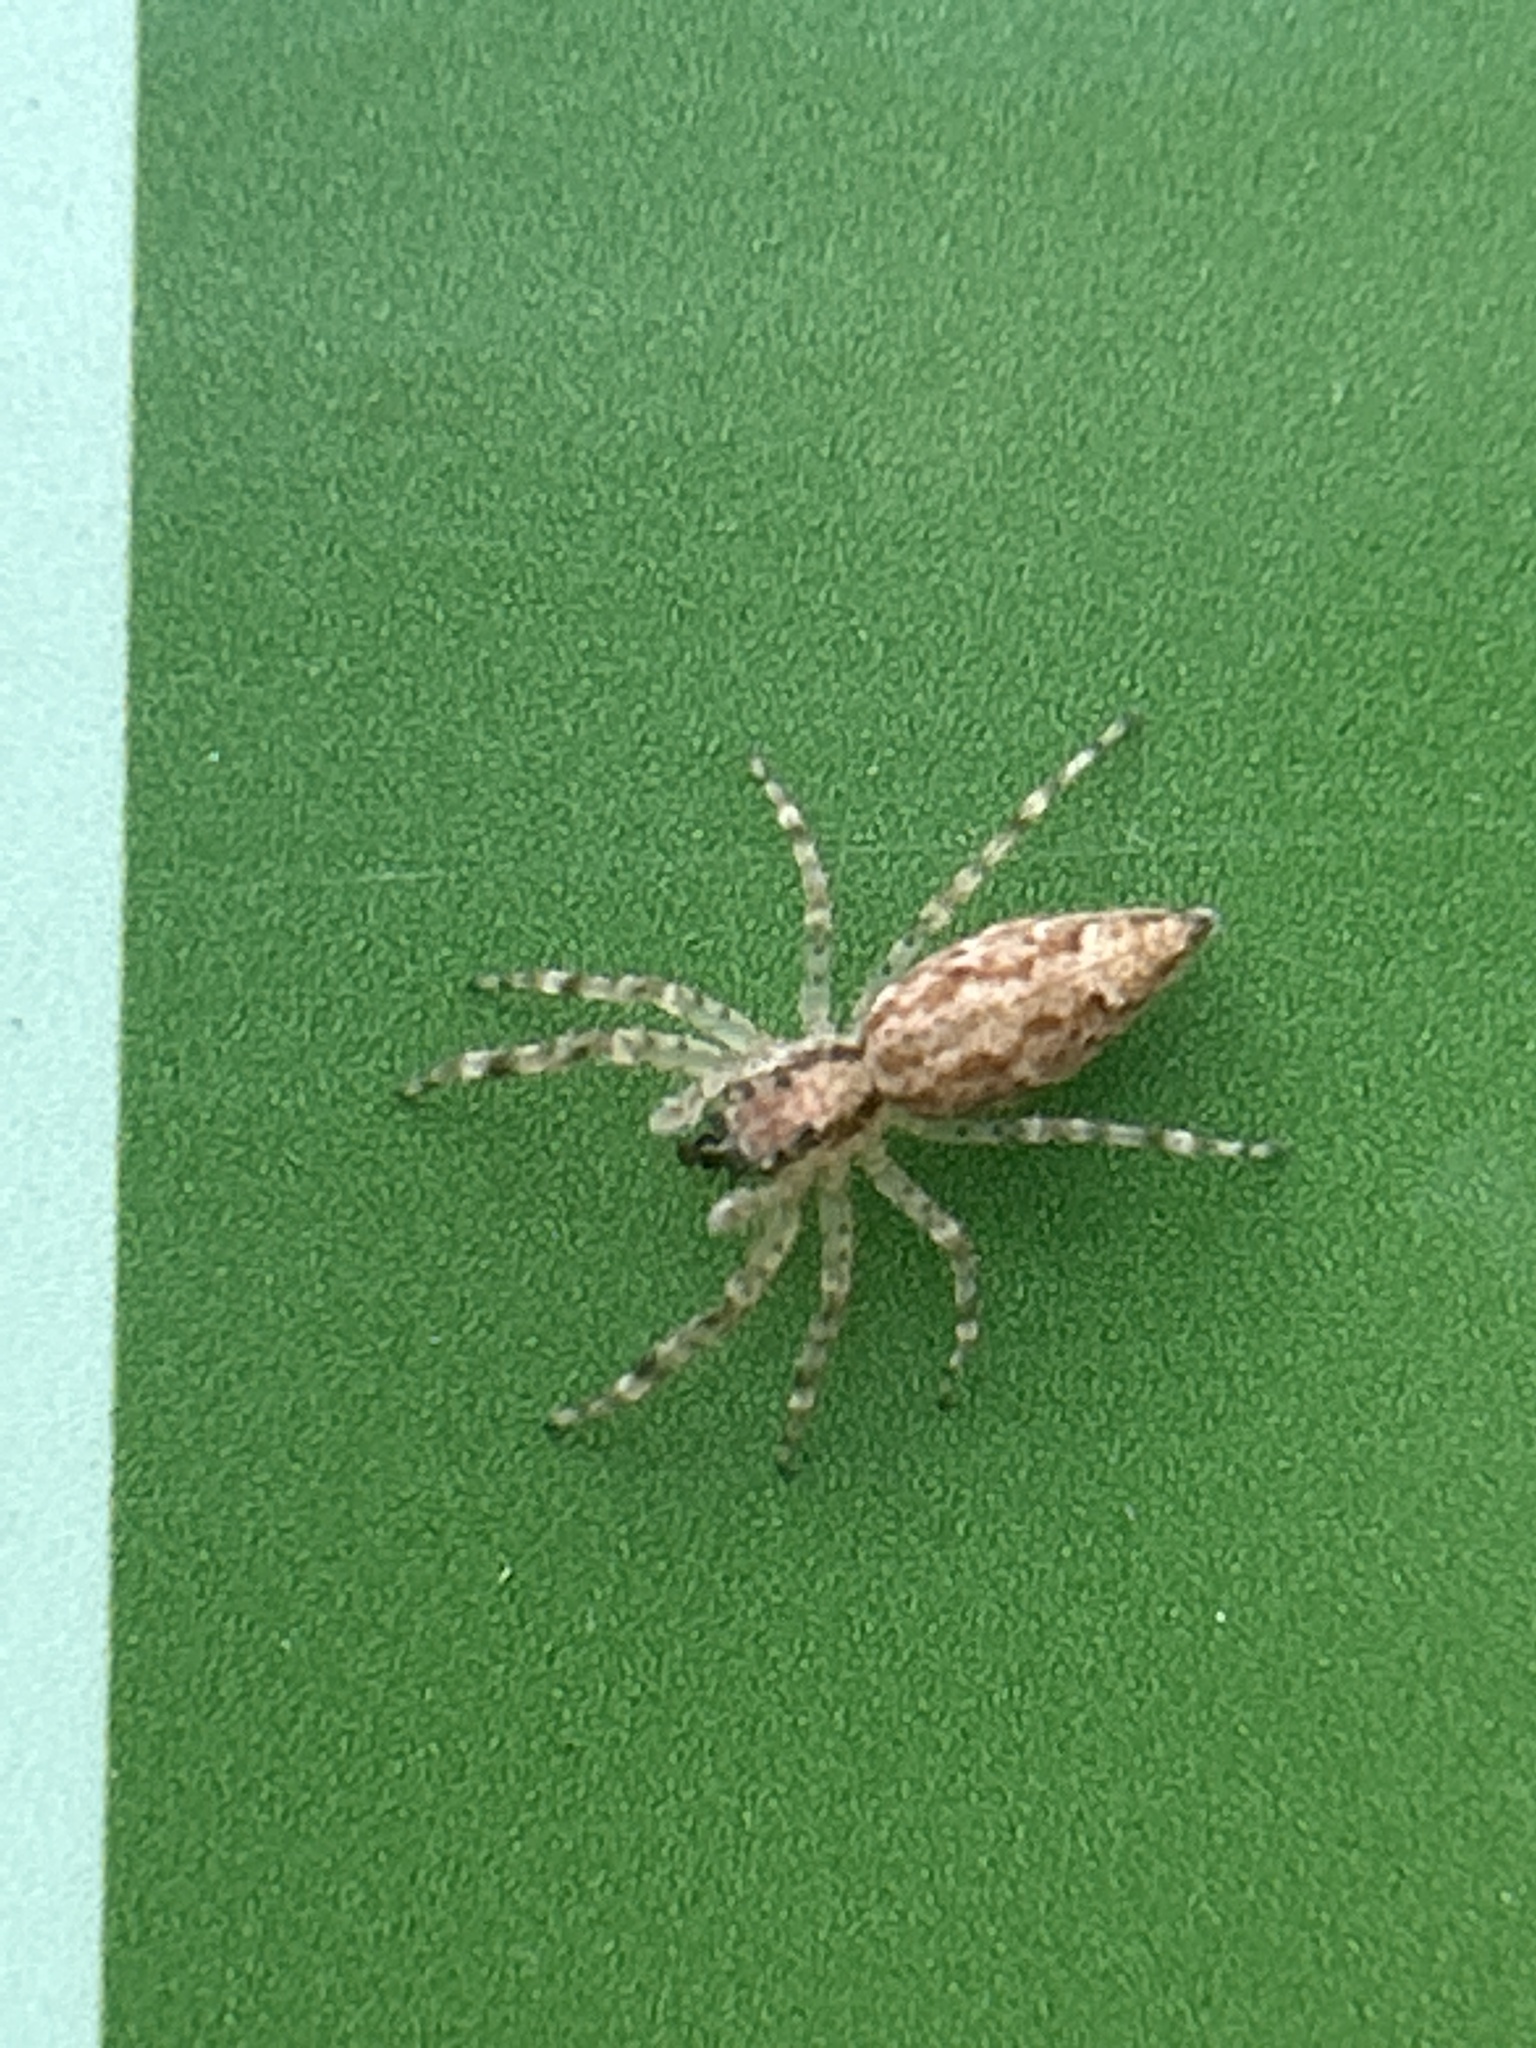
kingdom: Animalia
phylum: Arthropoda
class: Arachnida
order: Araneae
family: Salticidae
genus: Helpis
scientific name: Helpis minitabunda
